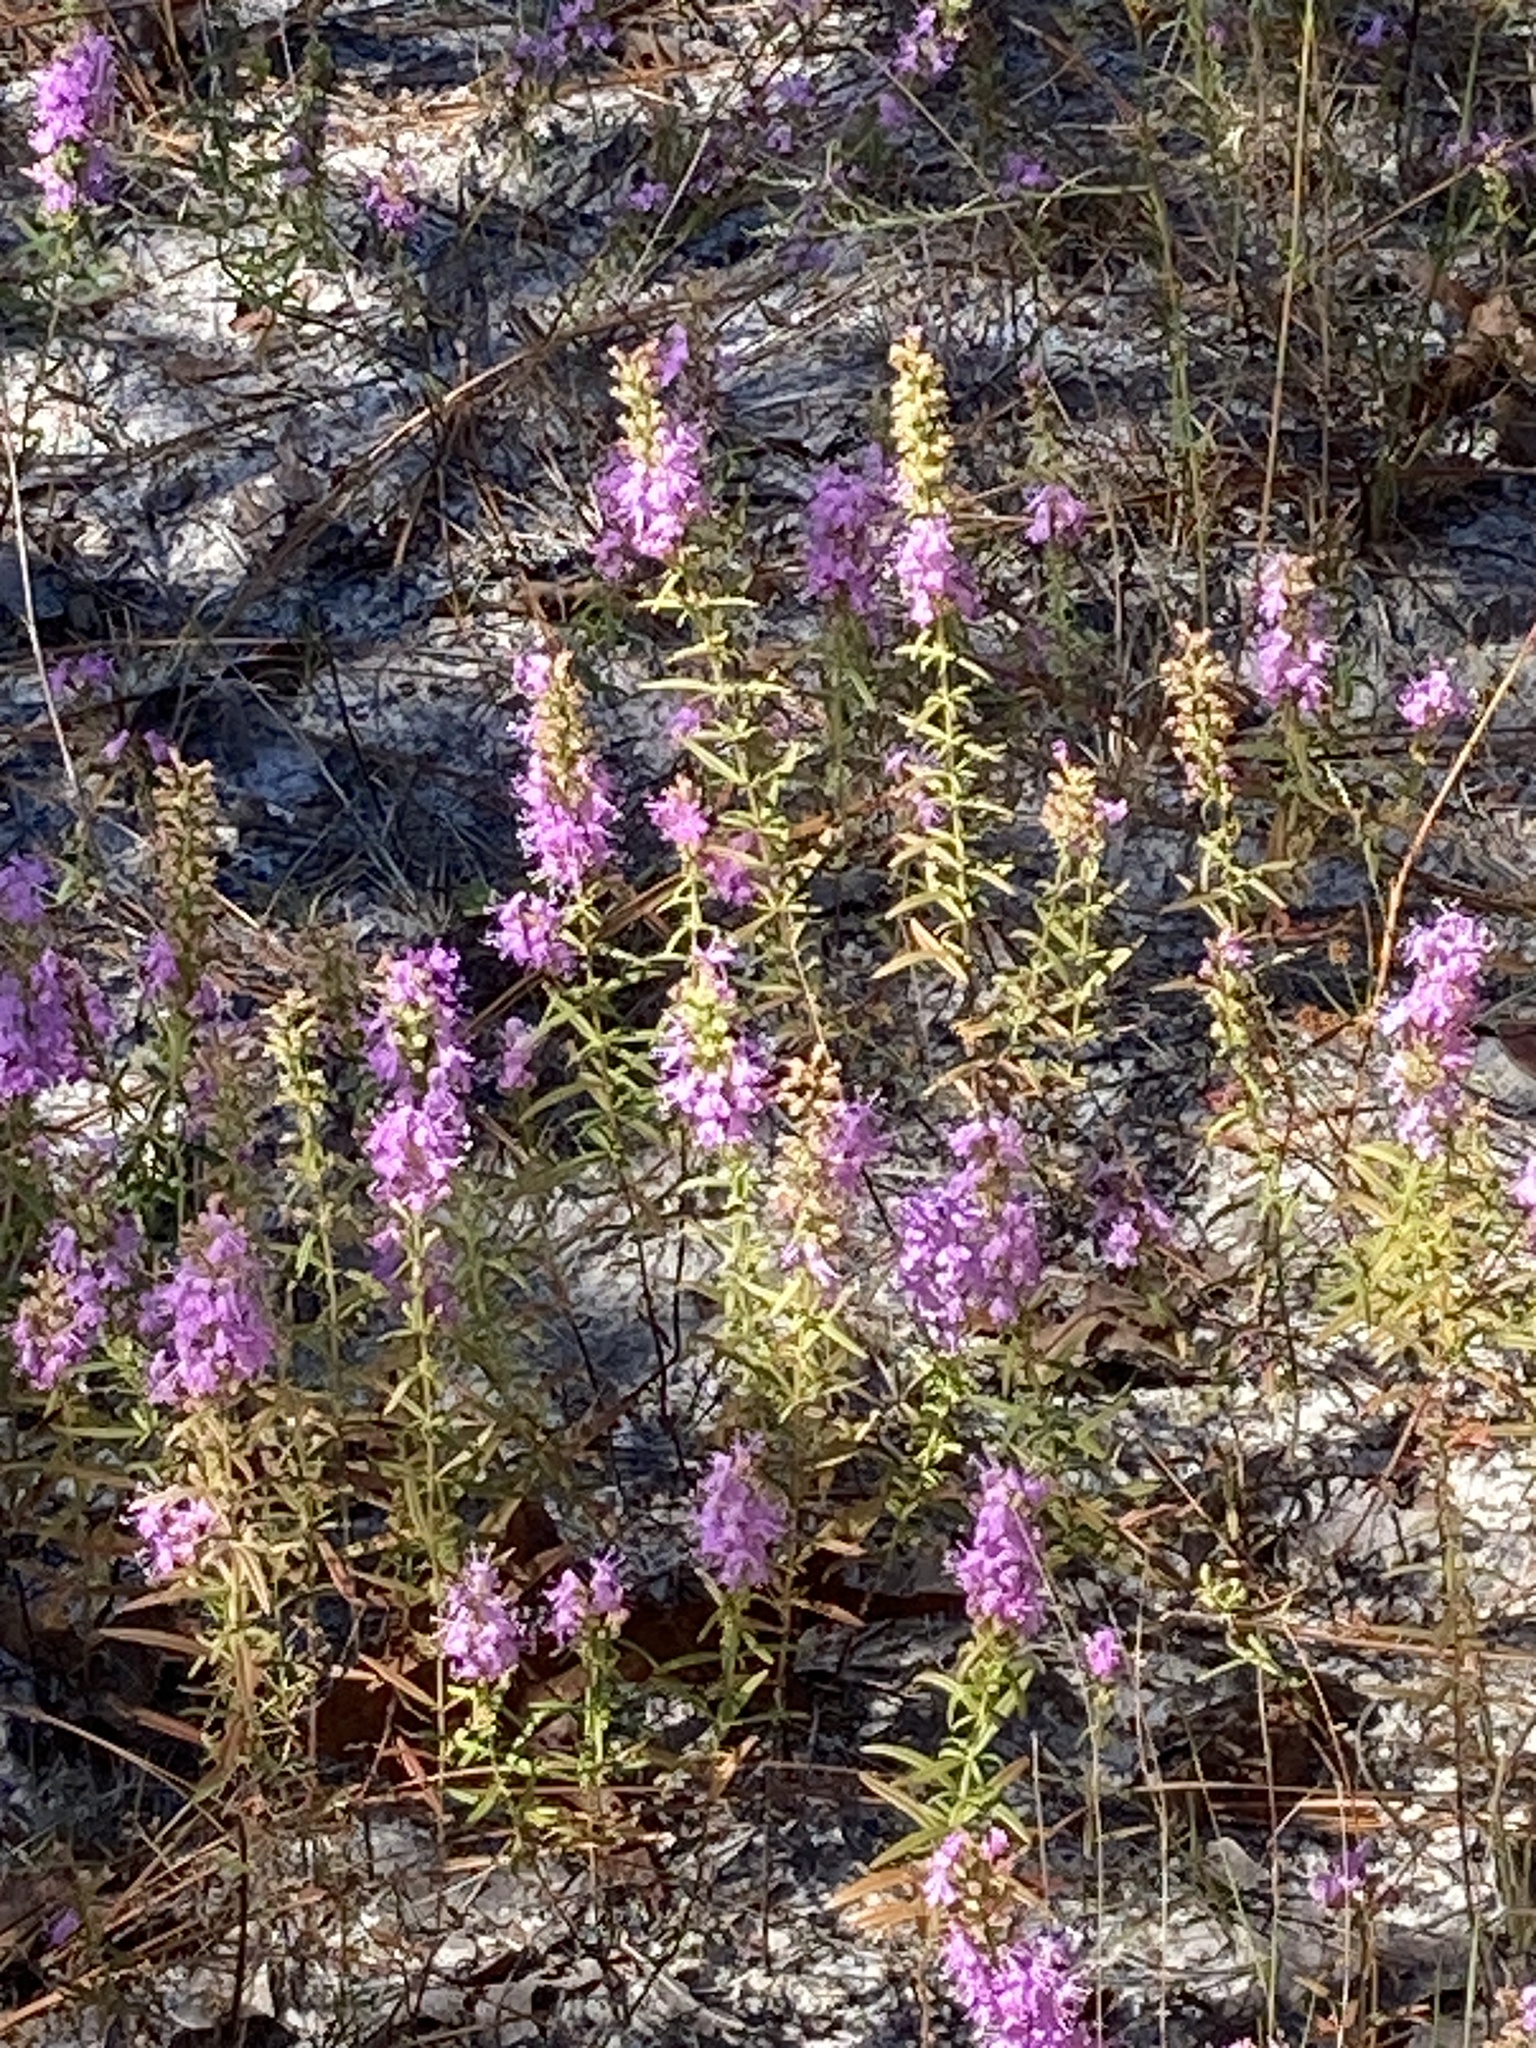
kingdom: Plantae
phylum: Tracheophyta
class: Magnoliopsida
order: Lamiales
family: Lamiaceae
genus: Dicerandra
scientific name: Dicerandra densiflora
